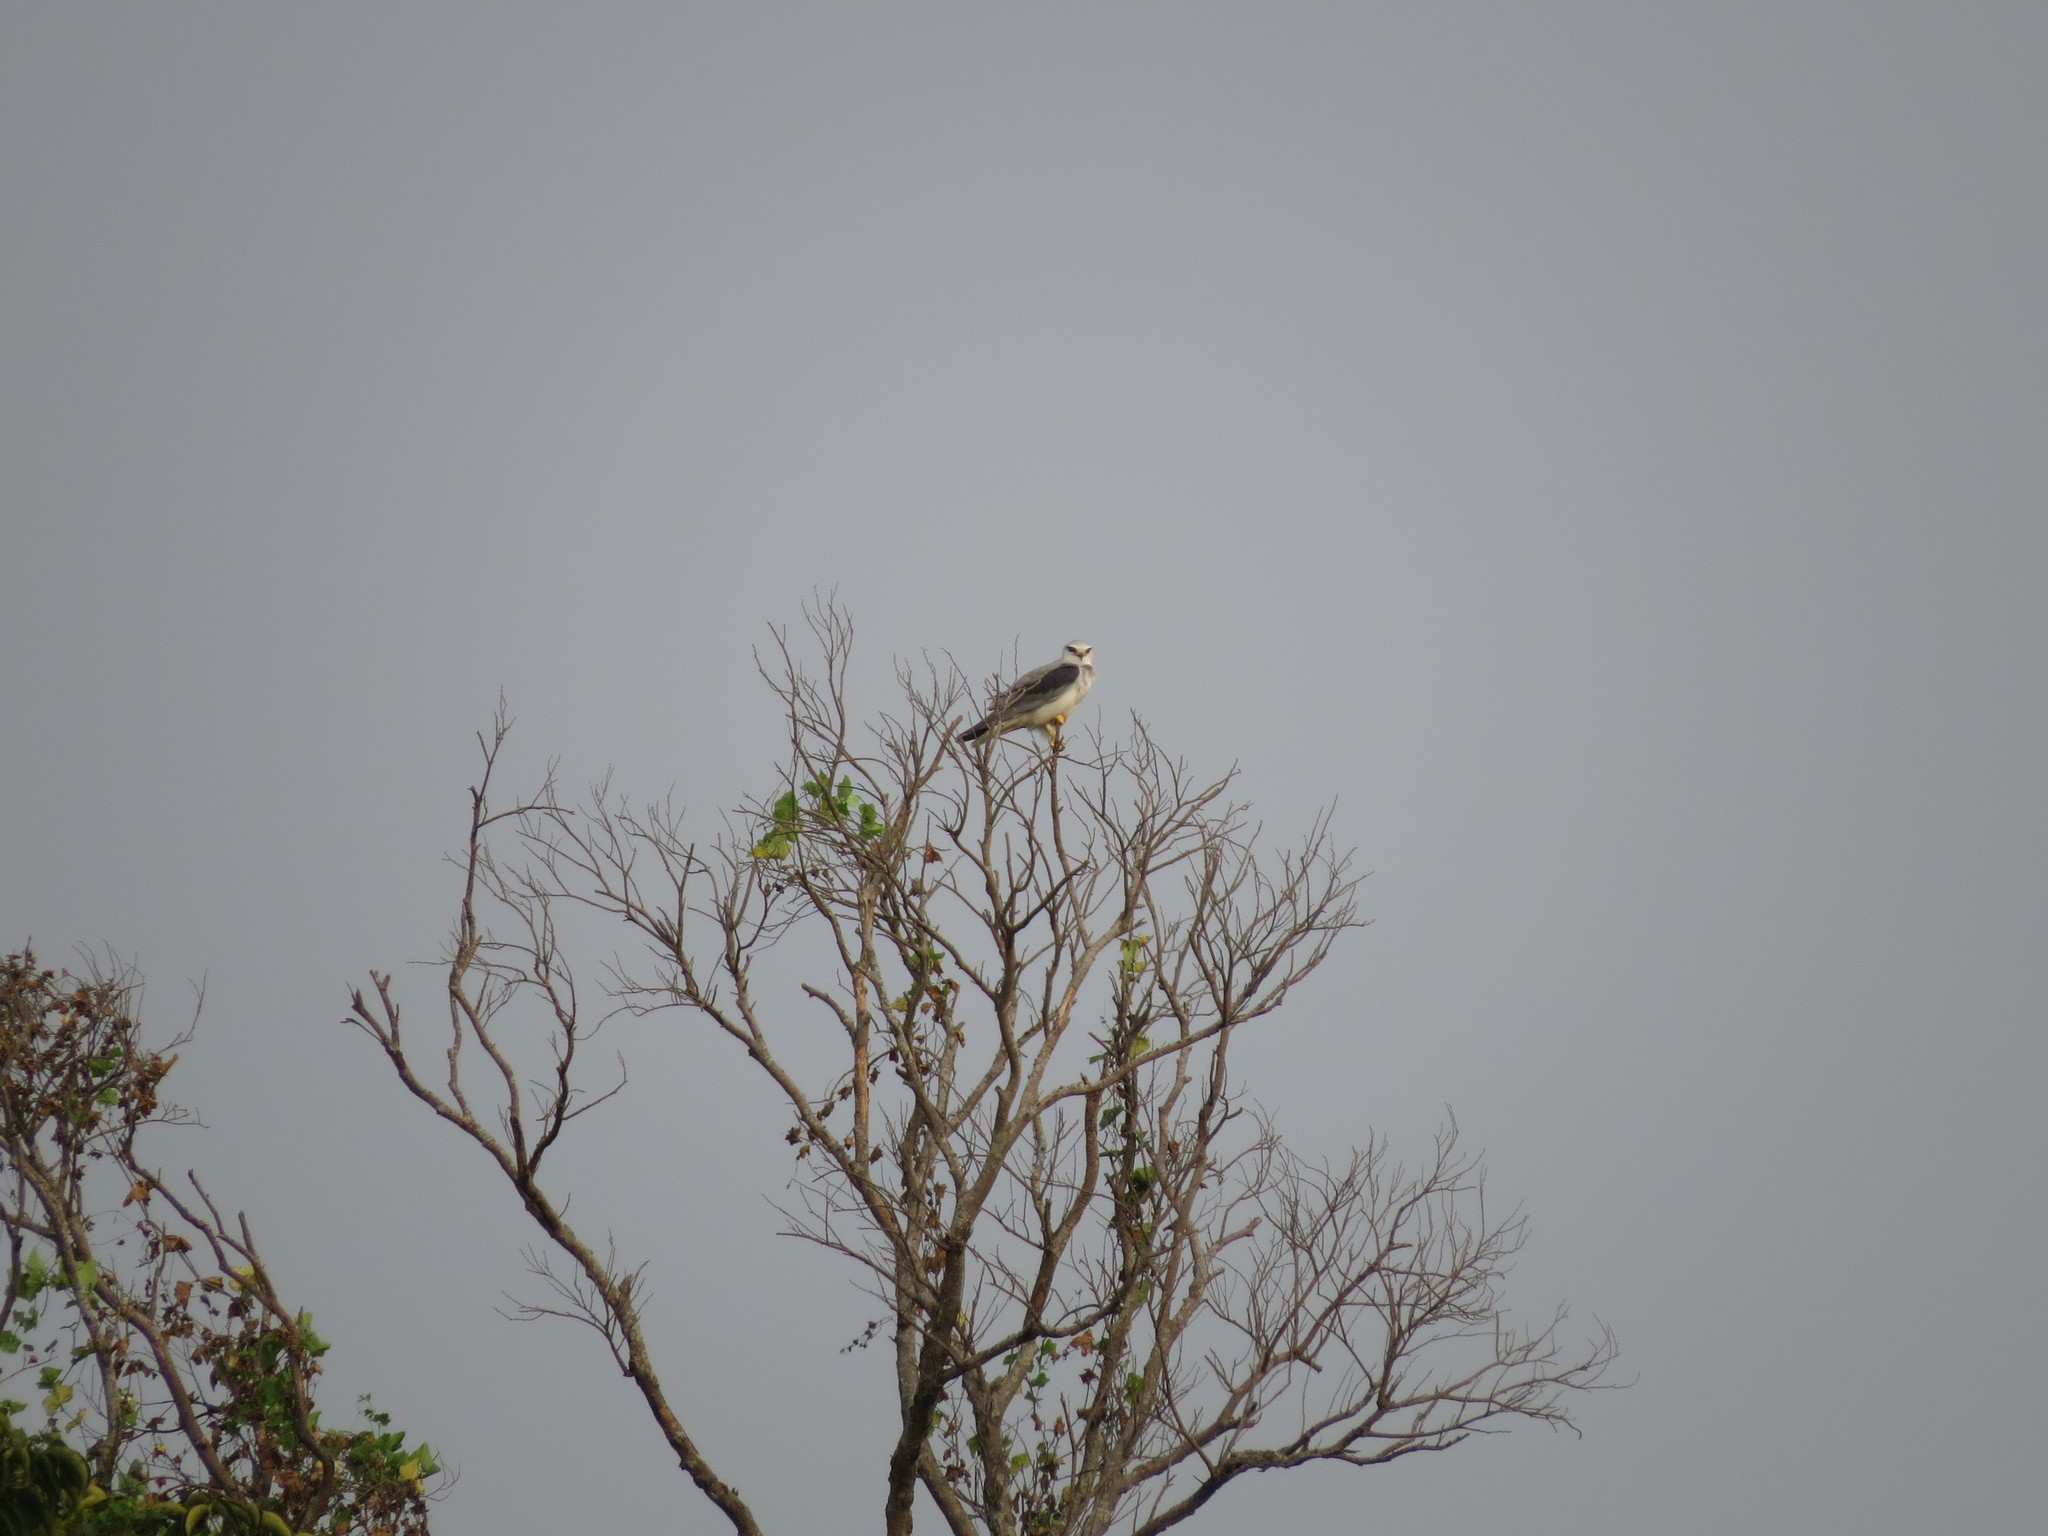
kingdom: Animalia
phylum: Chordata
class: Aves
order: Accipitriformes
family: Accipitridae
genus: Elanus
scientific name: Elanus caeruleus
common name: Black-winged kite
